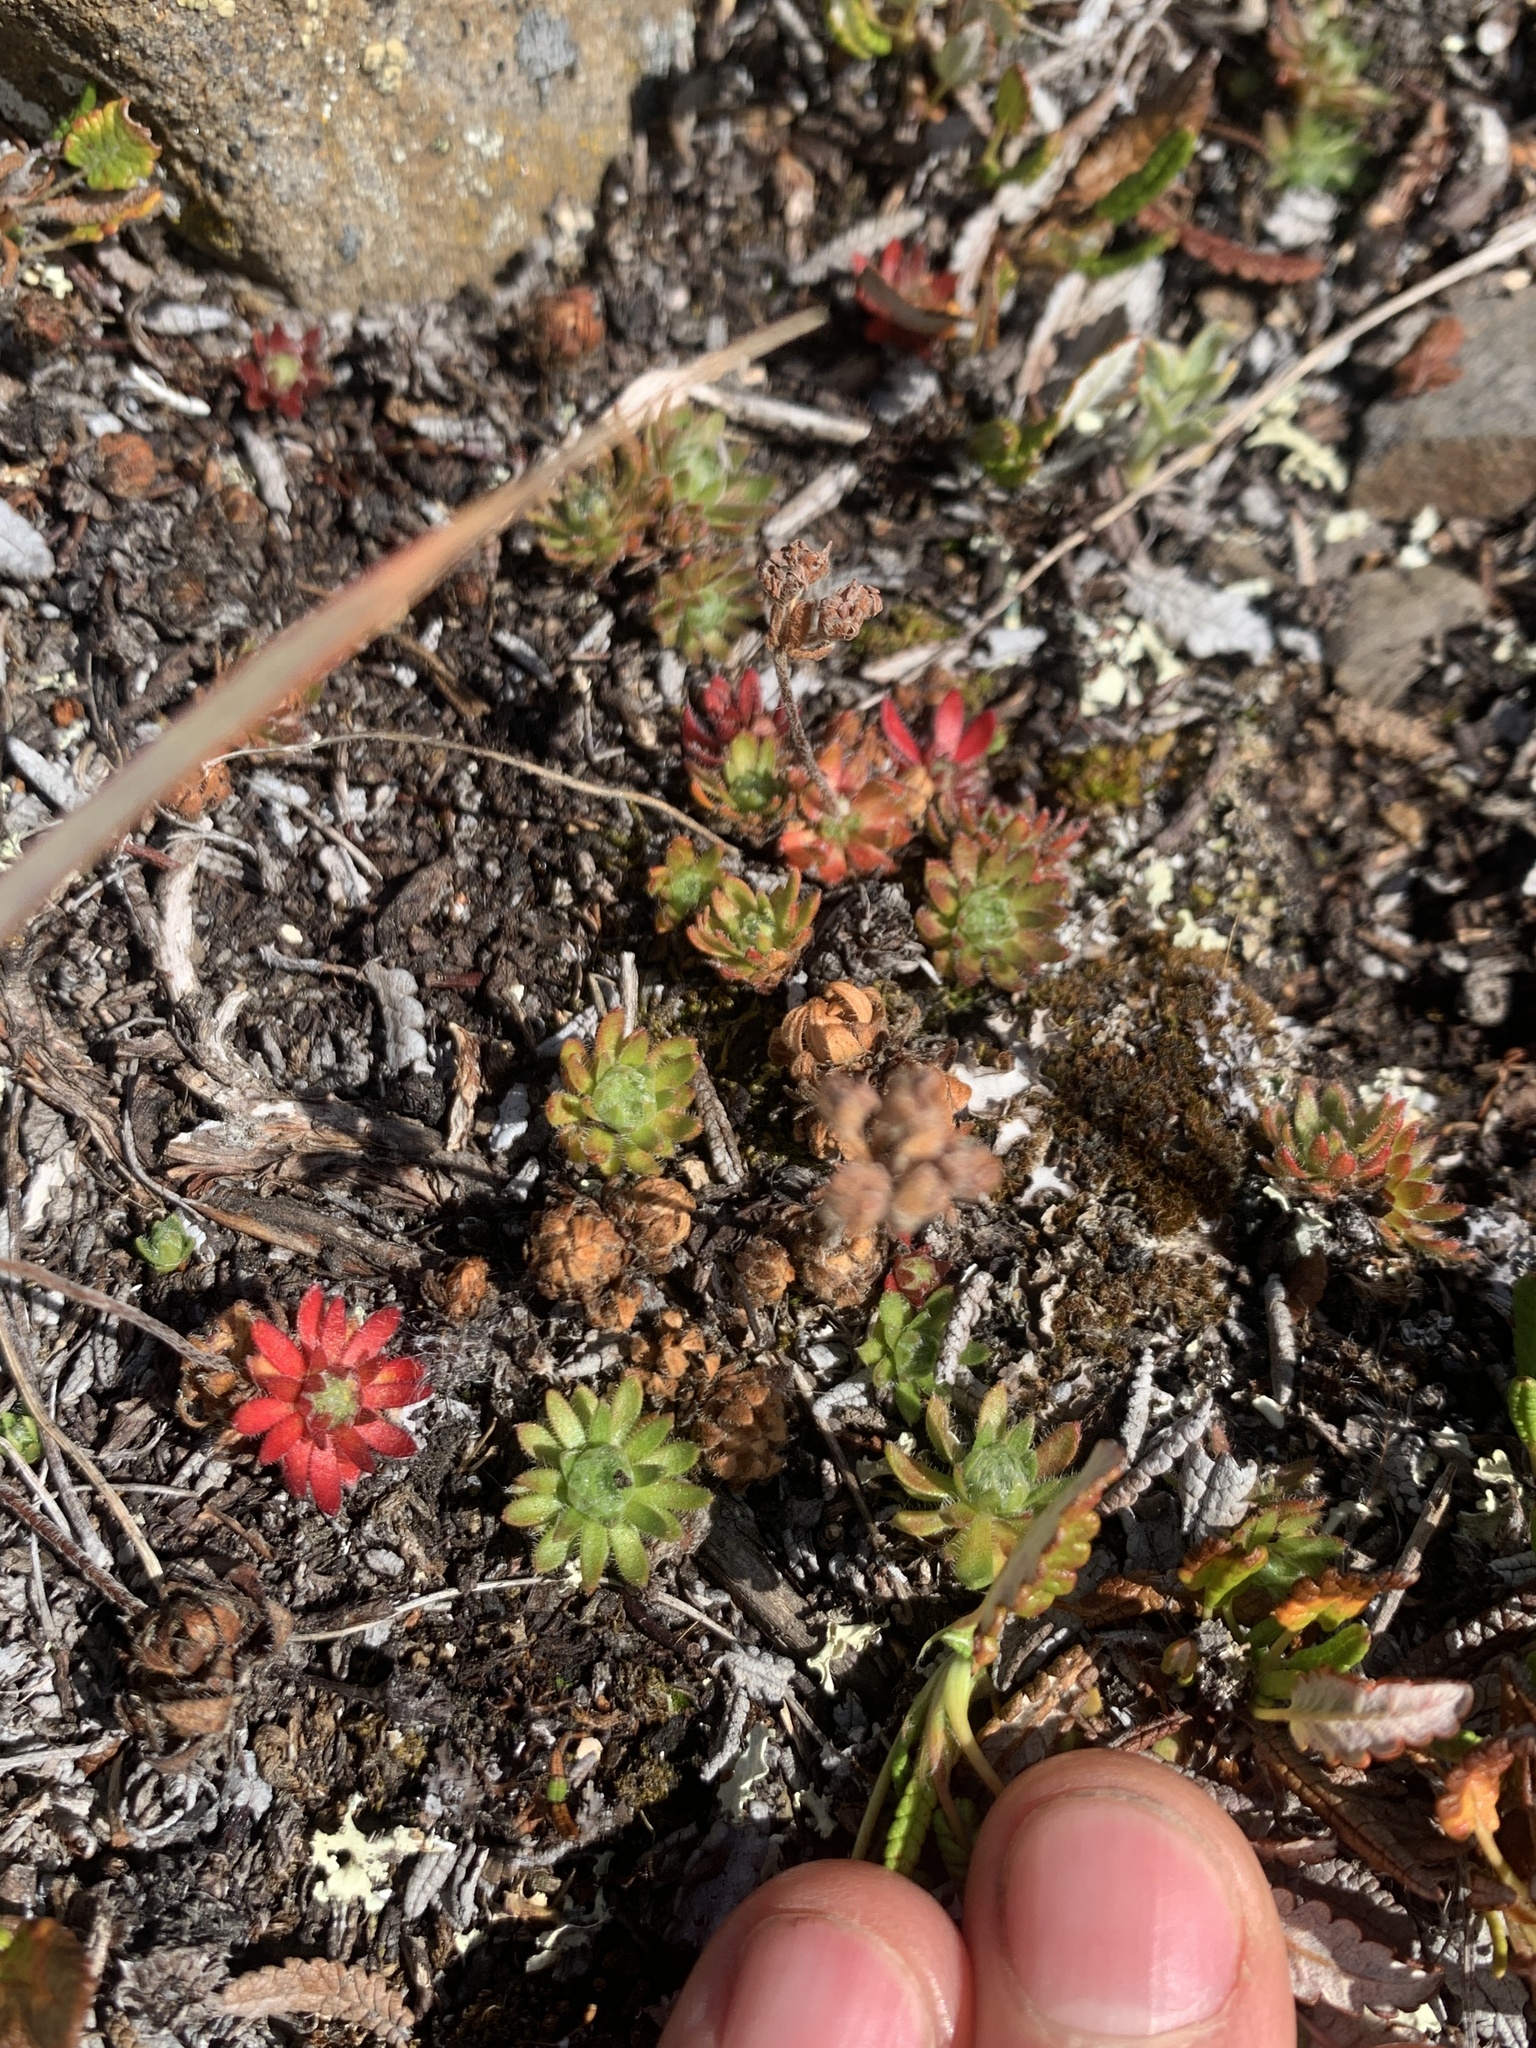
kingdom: Plantae
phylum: Tracheophyta
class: Magnoliopsida
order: Ericales
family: Primulaceae
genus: Androsace
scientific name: Androsace chamaejasme
